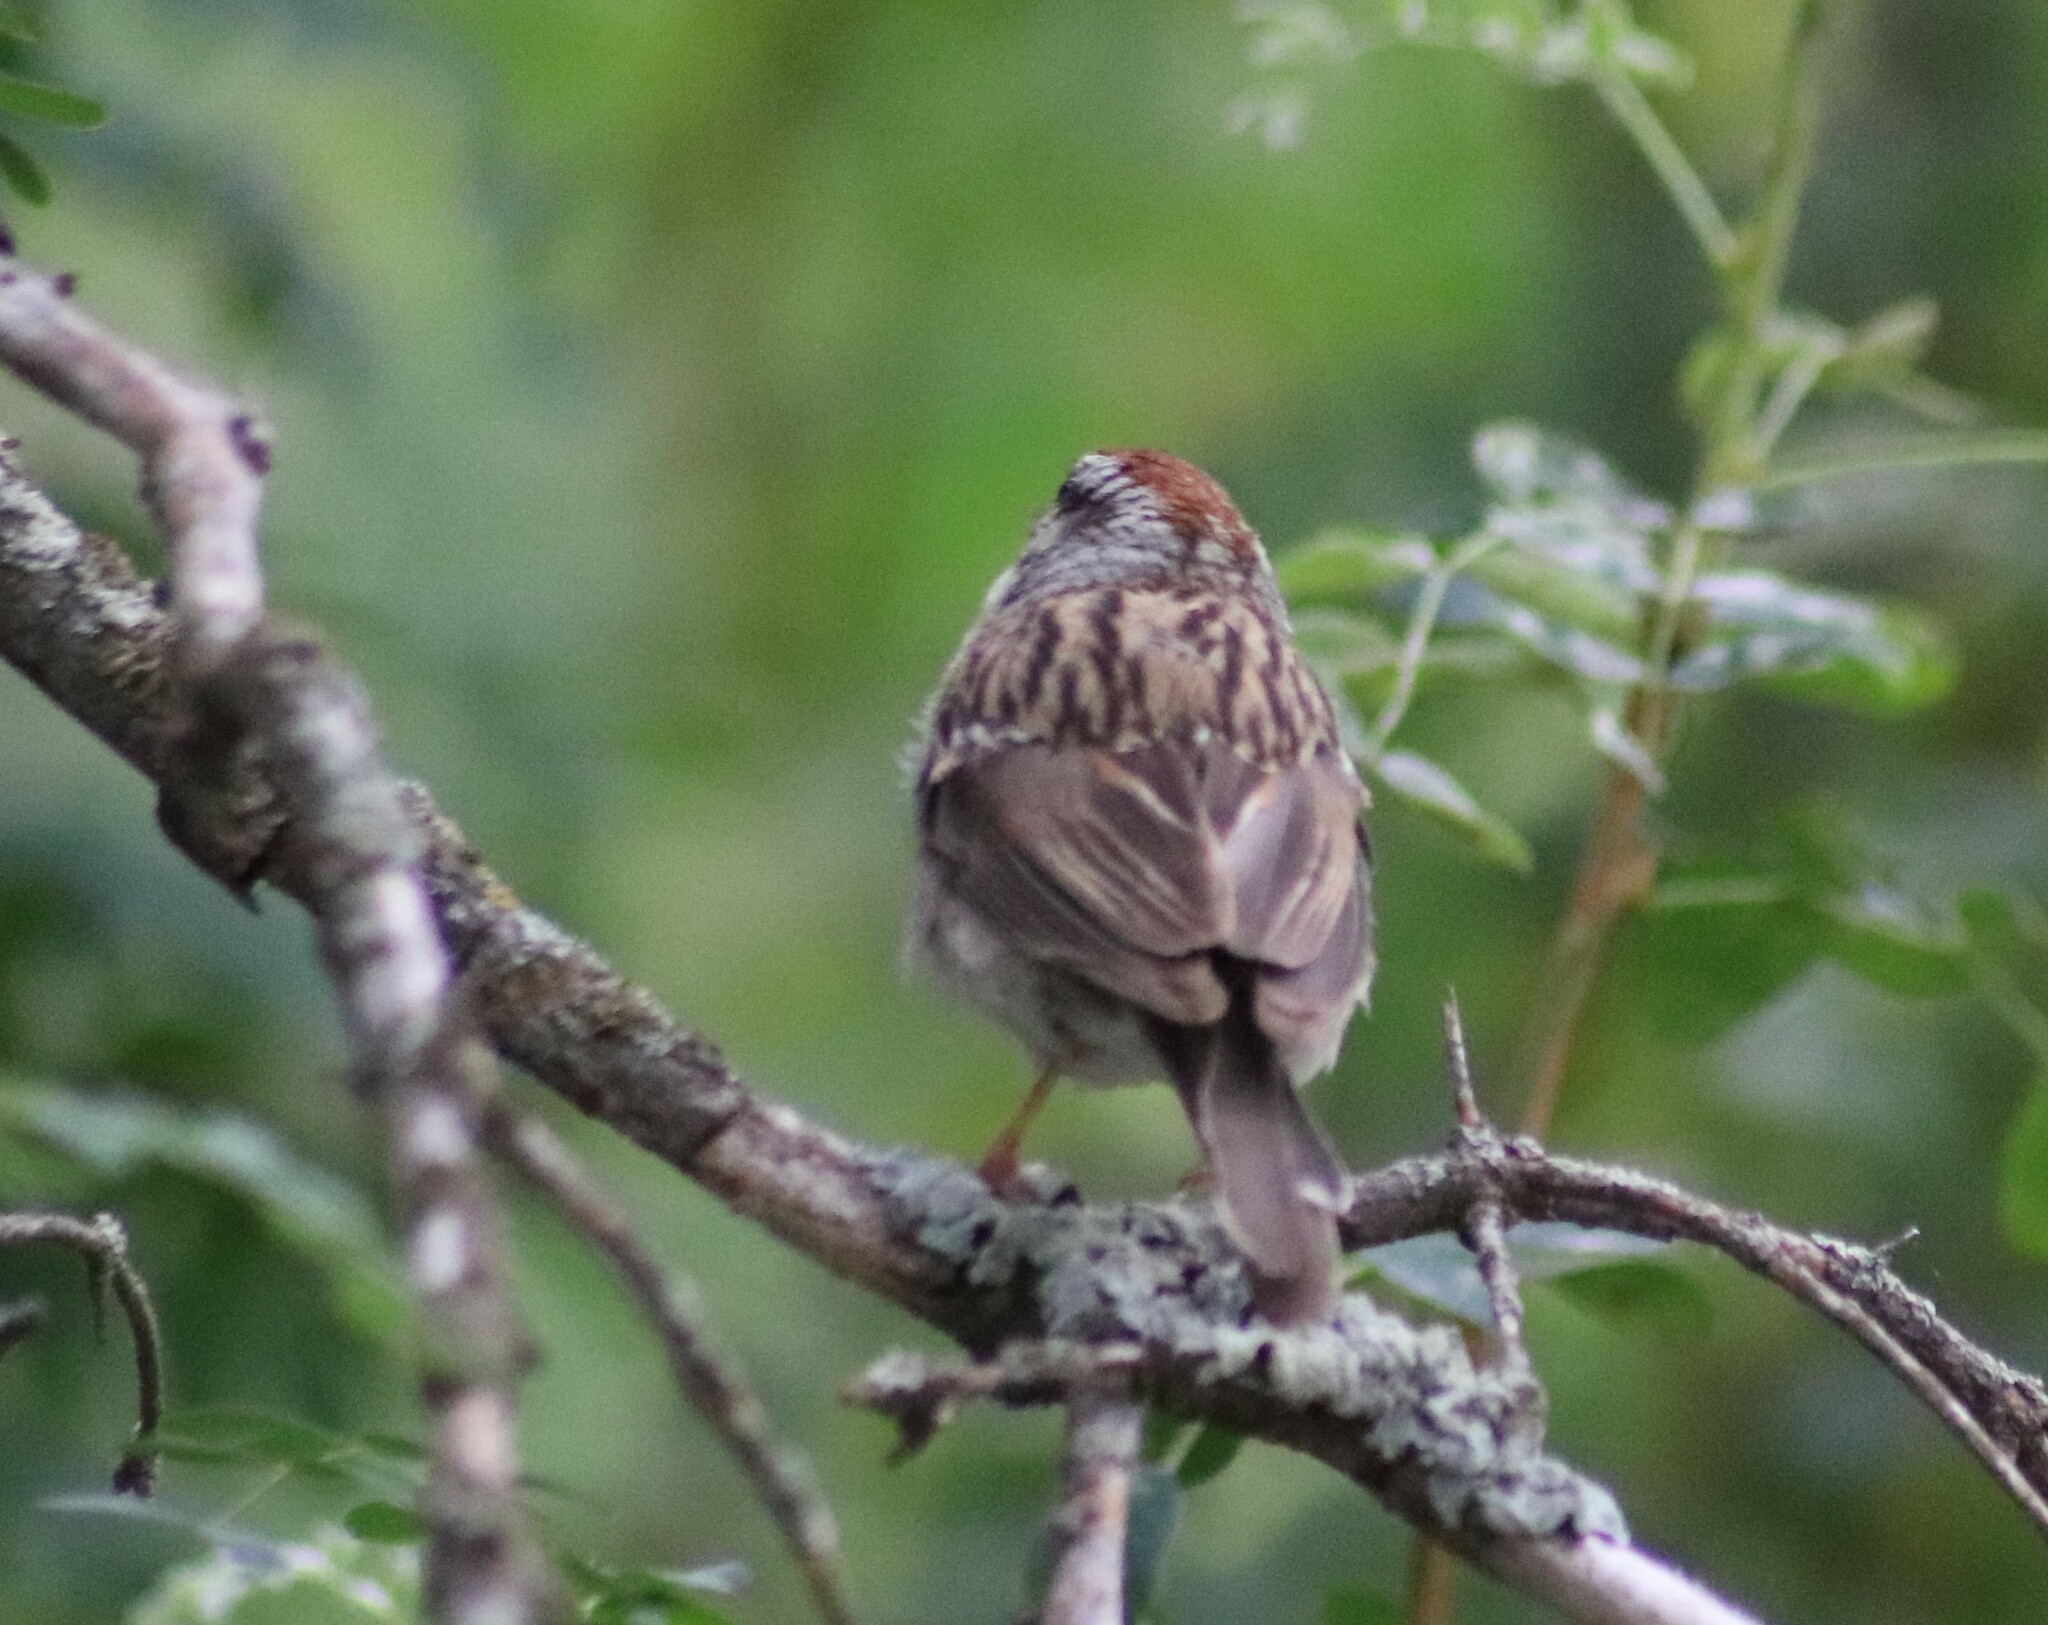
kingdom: Animalia
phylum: Chordata
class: Aves
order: Passeriformes
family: Passerellidae
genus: Spizella
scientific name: Spizella passerina
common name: Chipping sparrow
